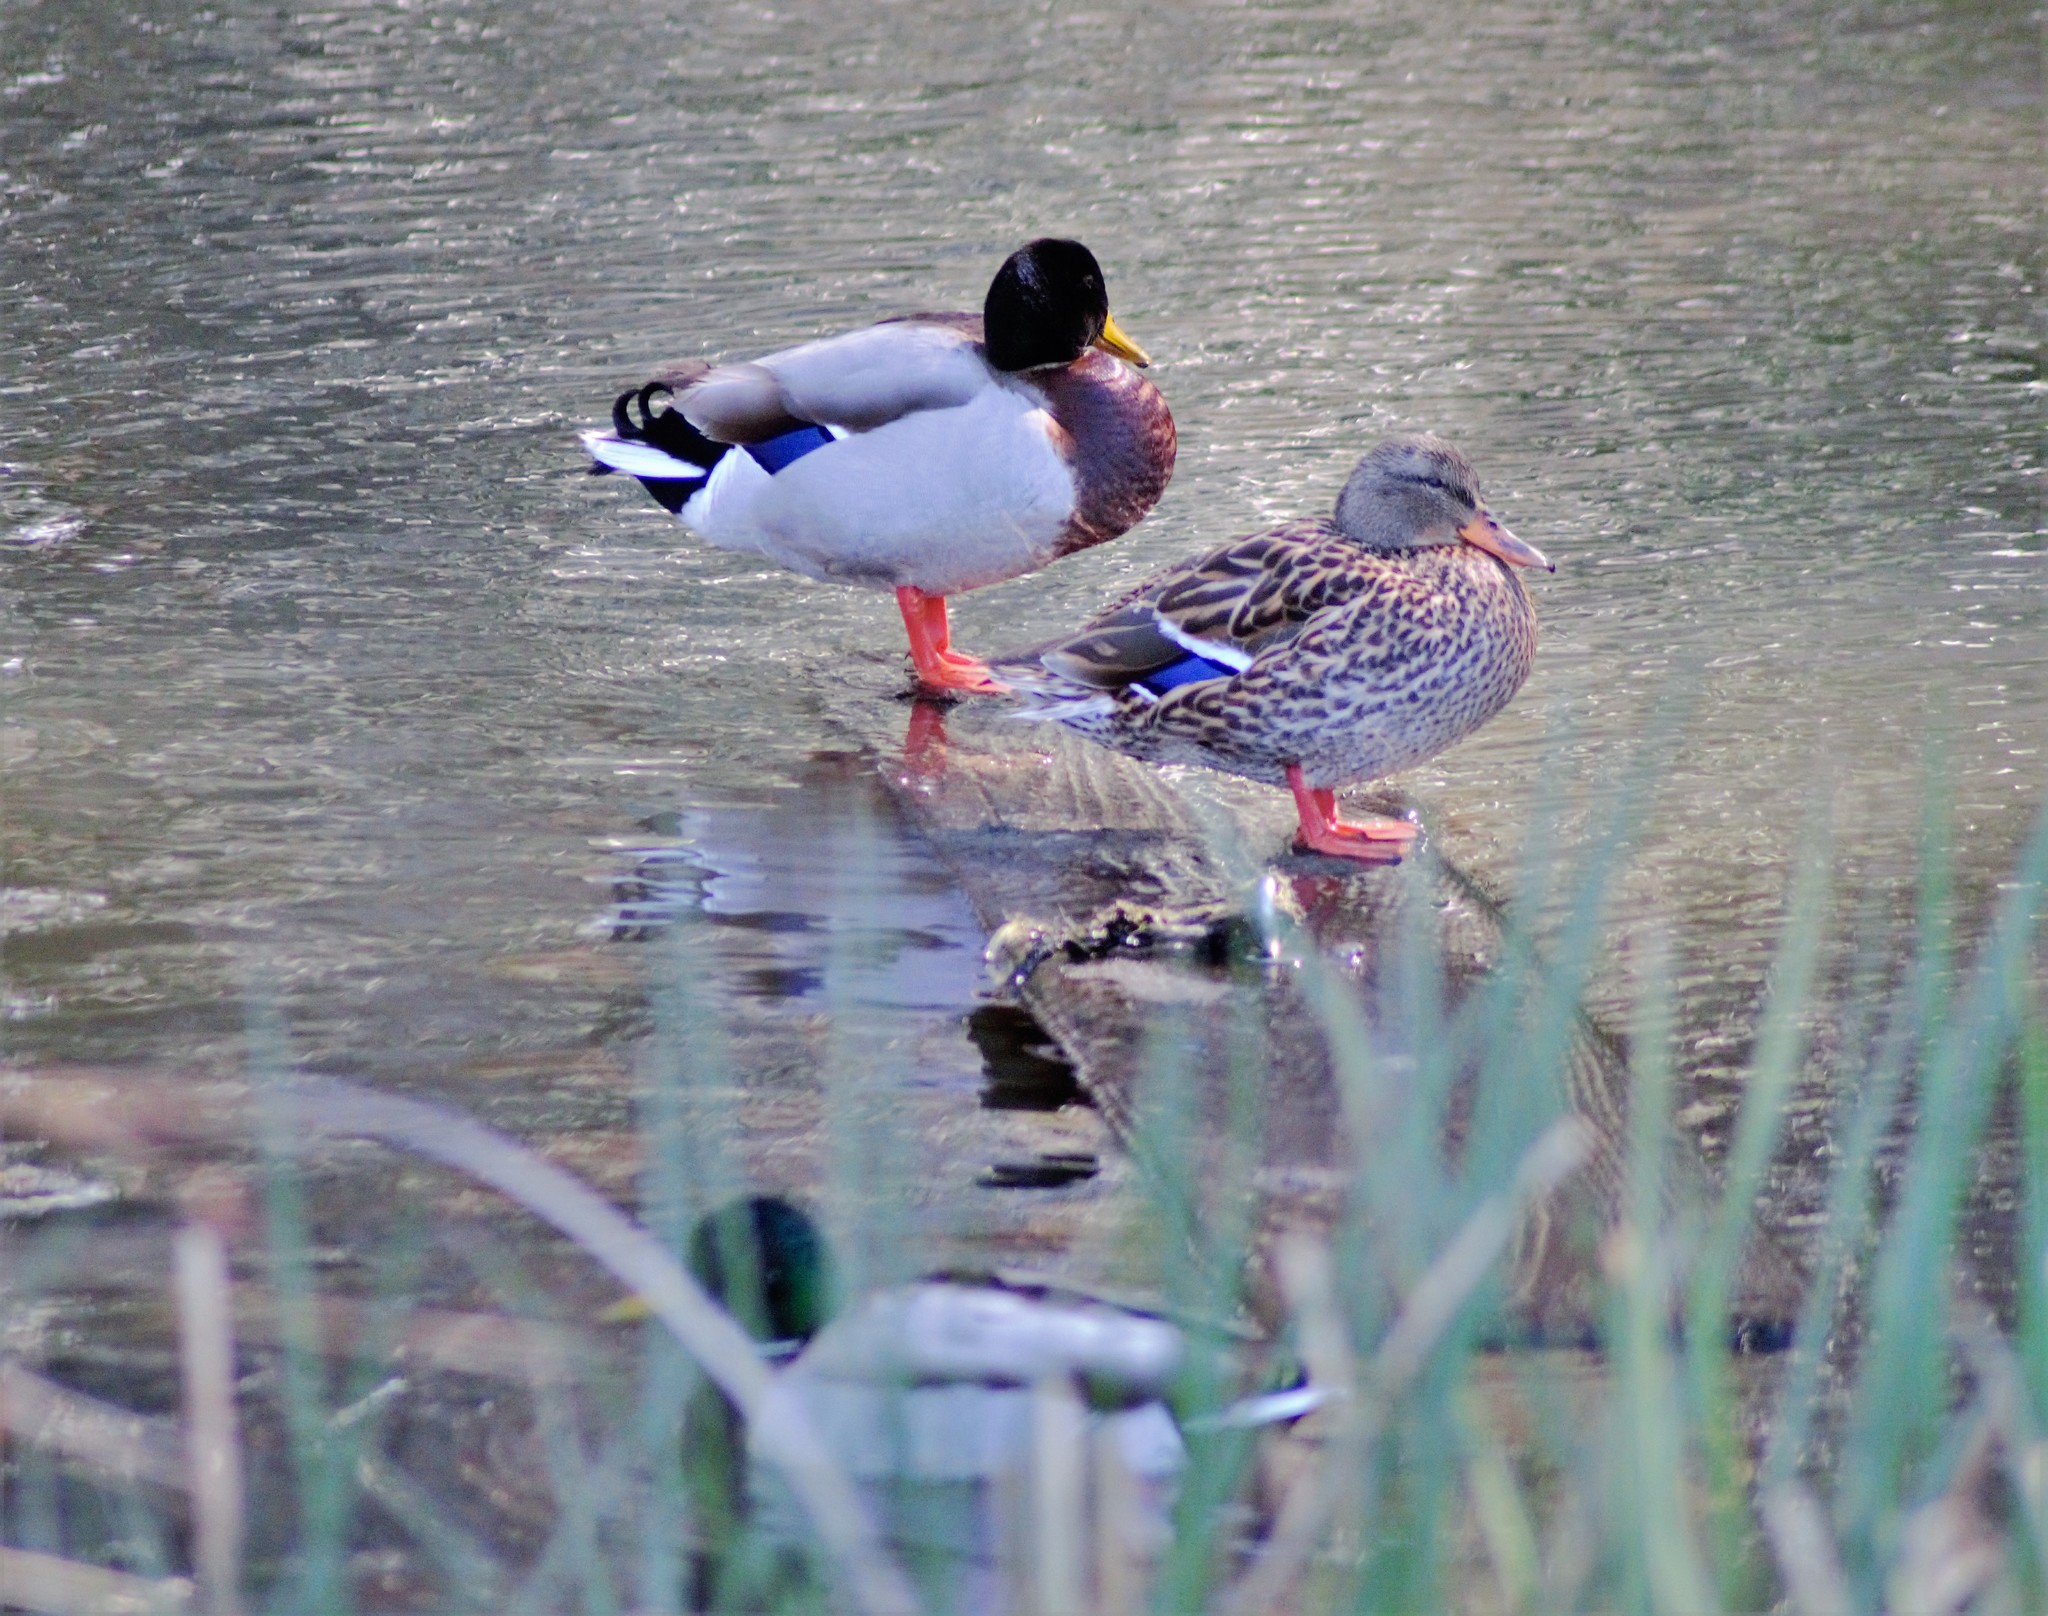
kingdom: Animalia
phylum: Chordata
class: Aves
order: Anseriformes
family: Anatidae
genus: Anas
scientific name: Anas platyrhynchos
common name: Mallard
